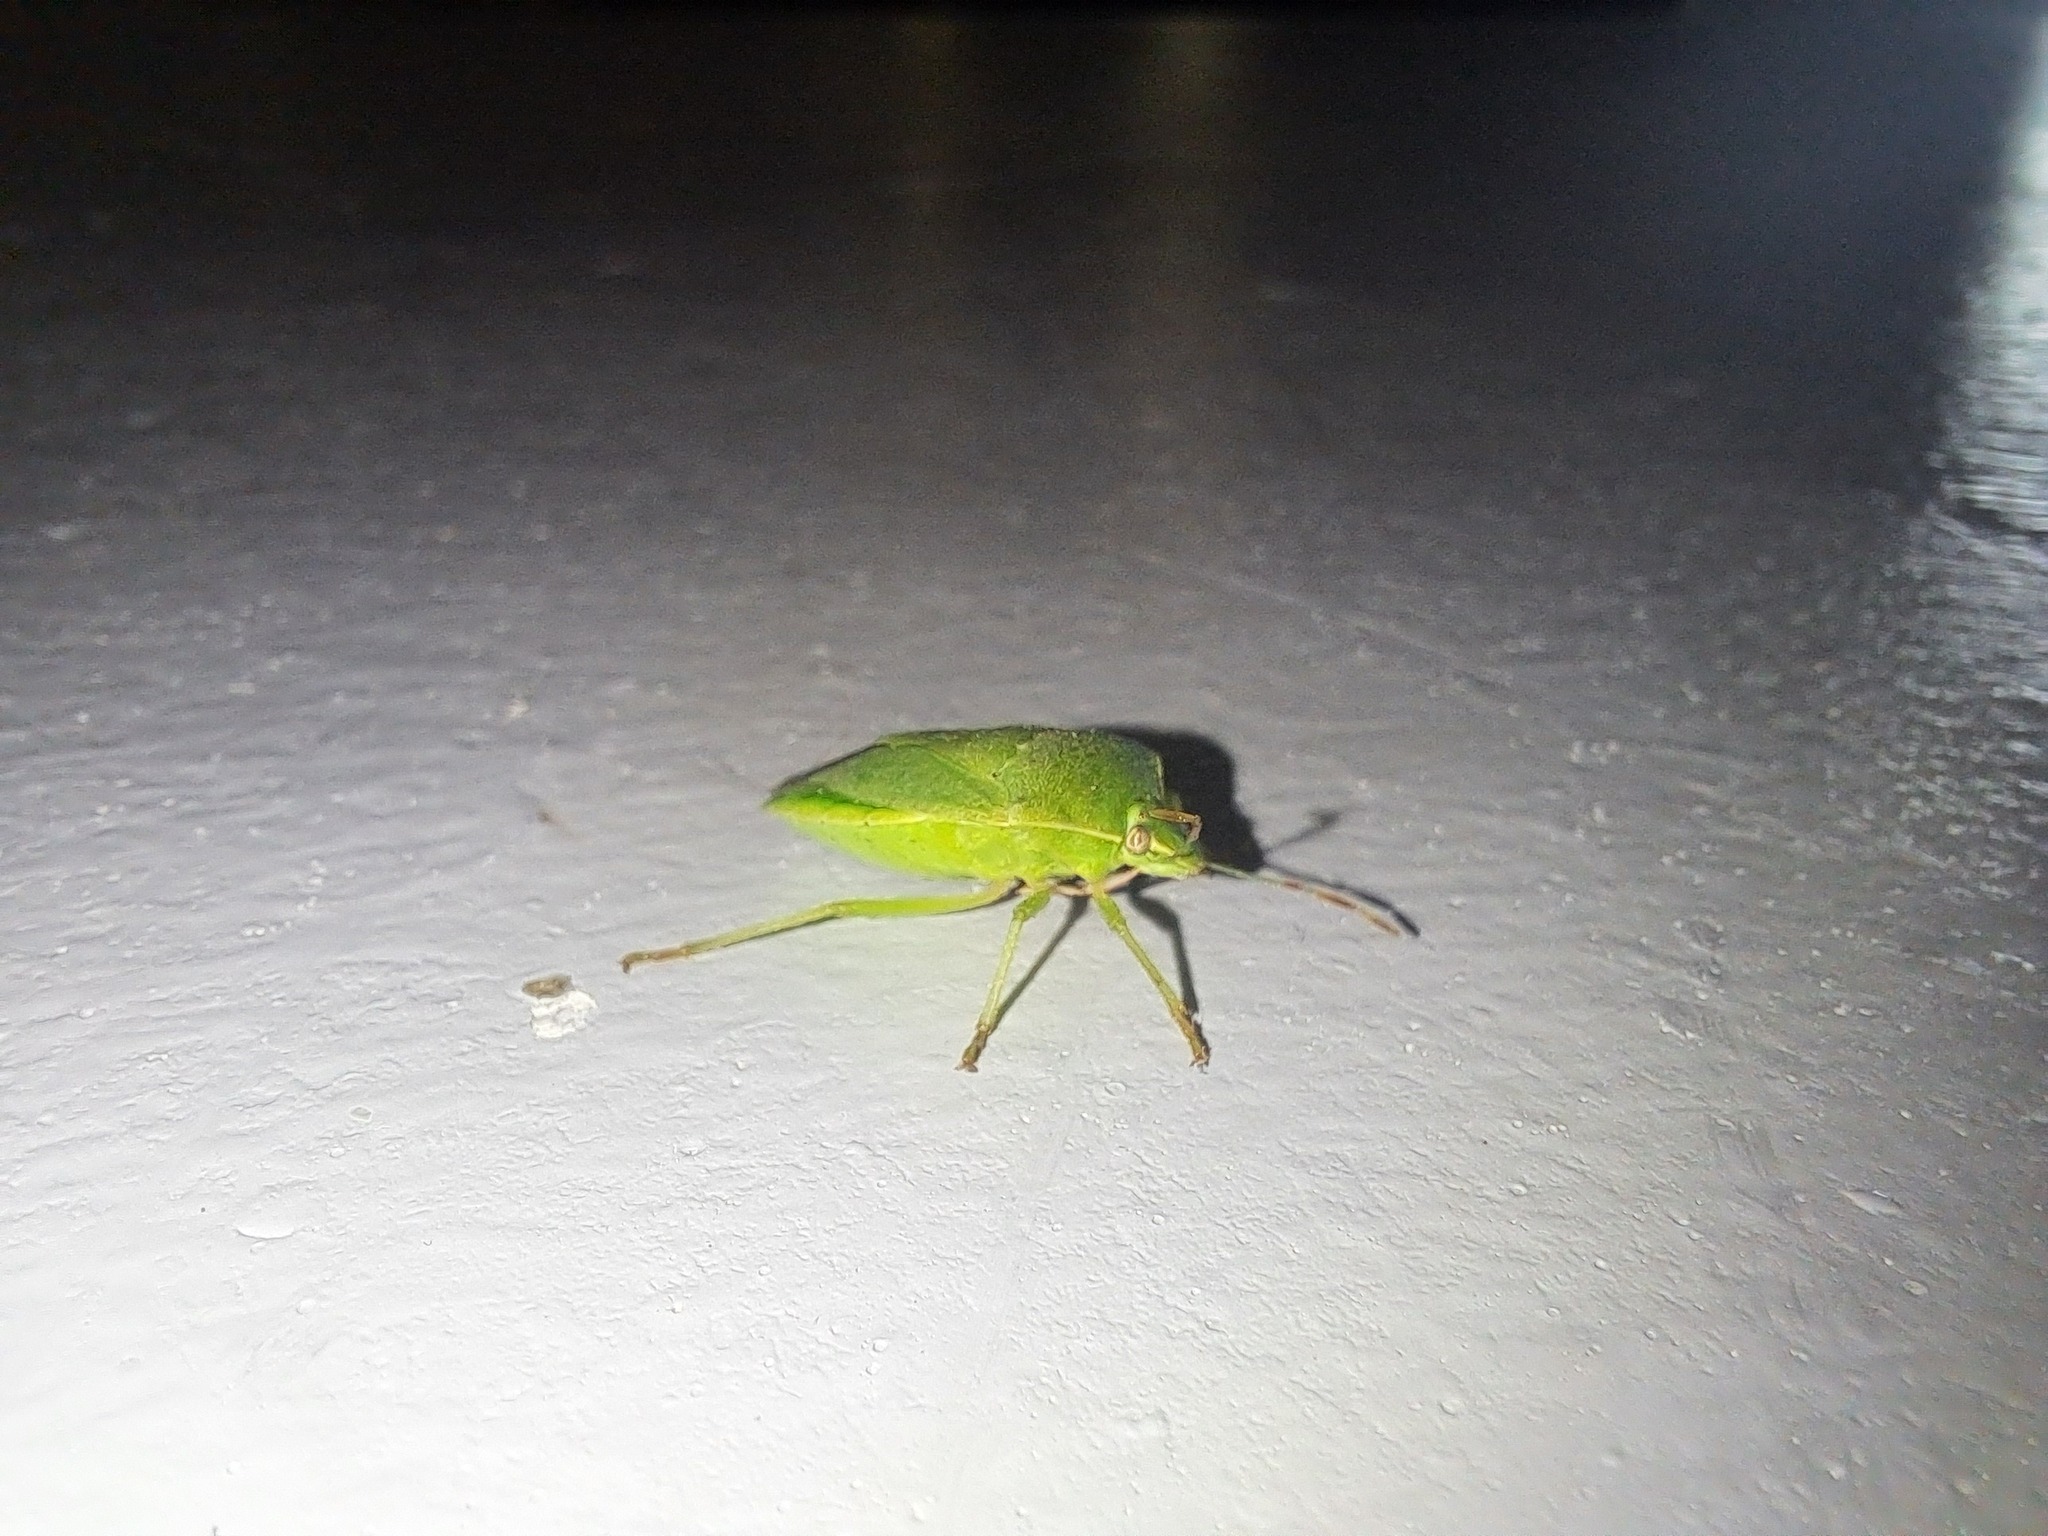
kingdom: Animalia
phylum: Arthropoda
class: Insecta
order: Hemiptera
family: Pentatomidae
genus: Nezara
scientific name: Nezara viridula
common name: Southern green stink bug
